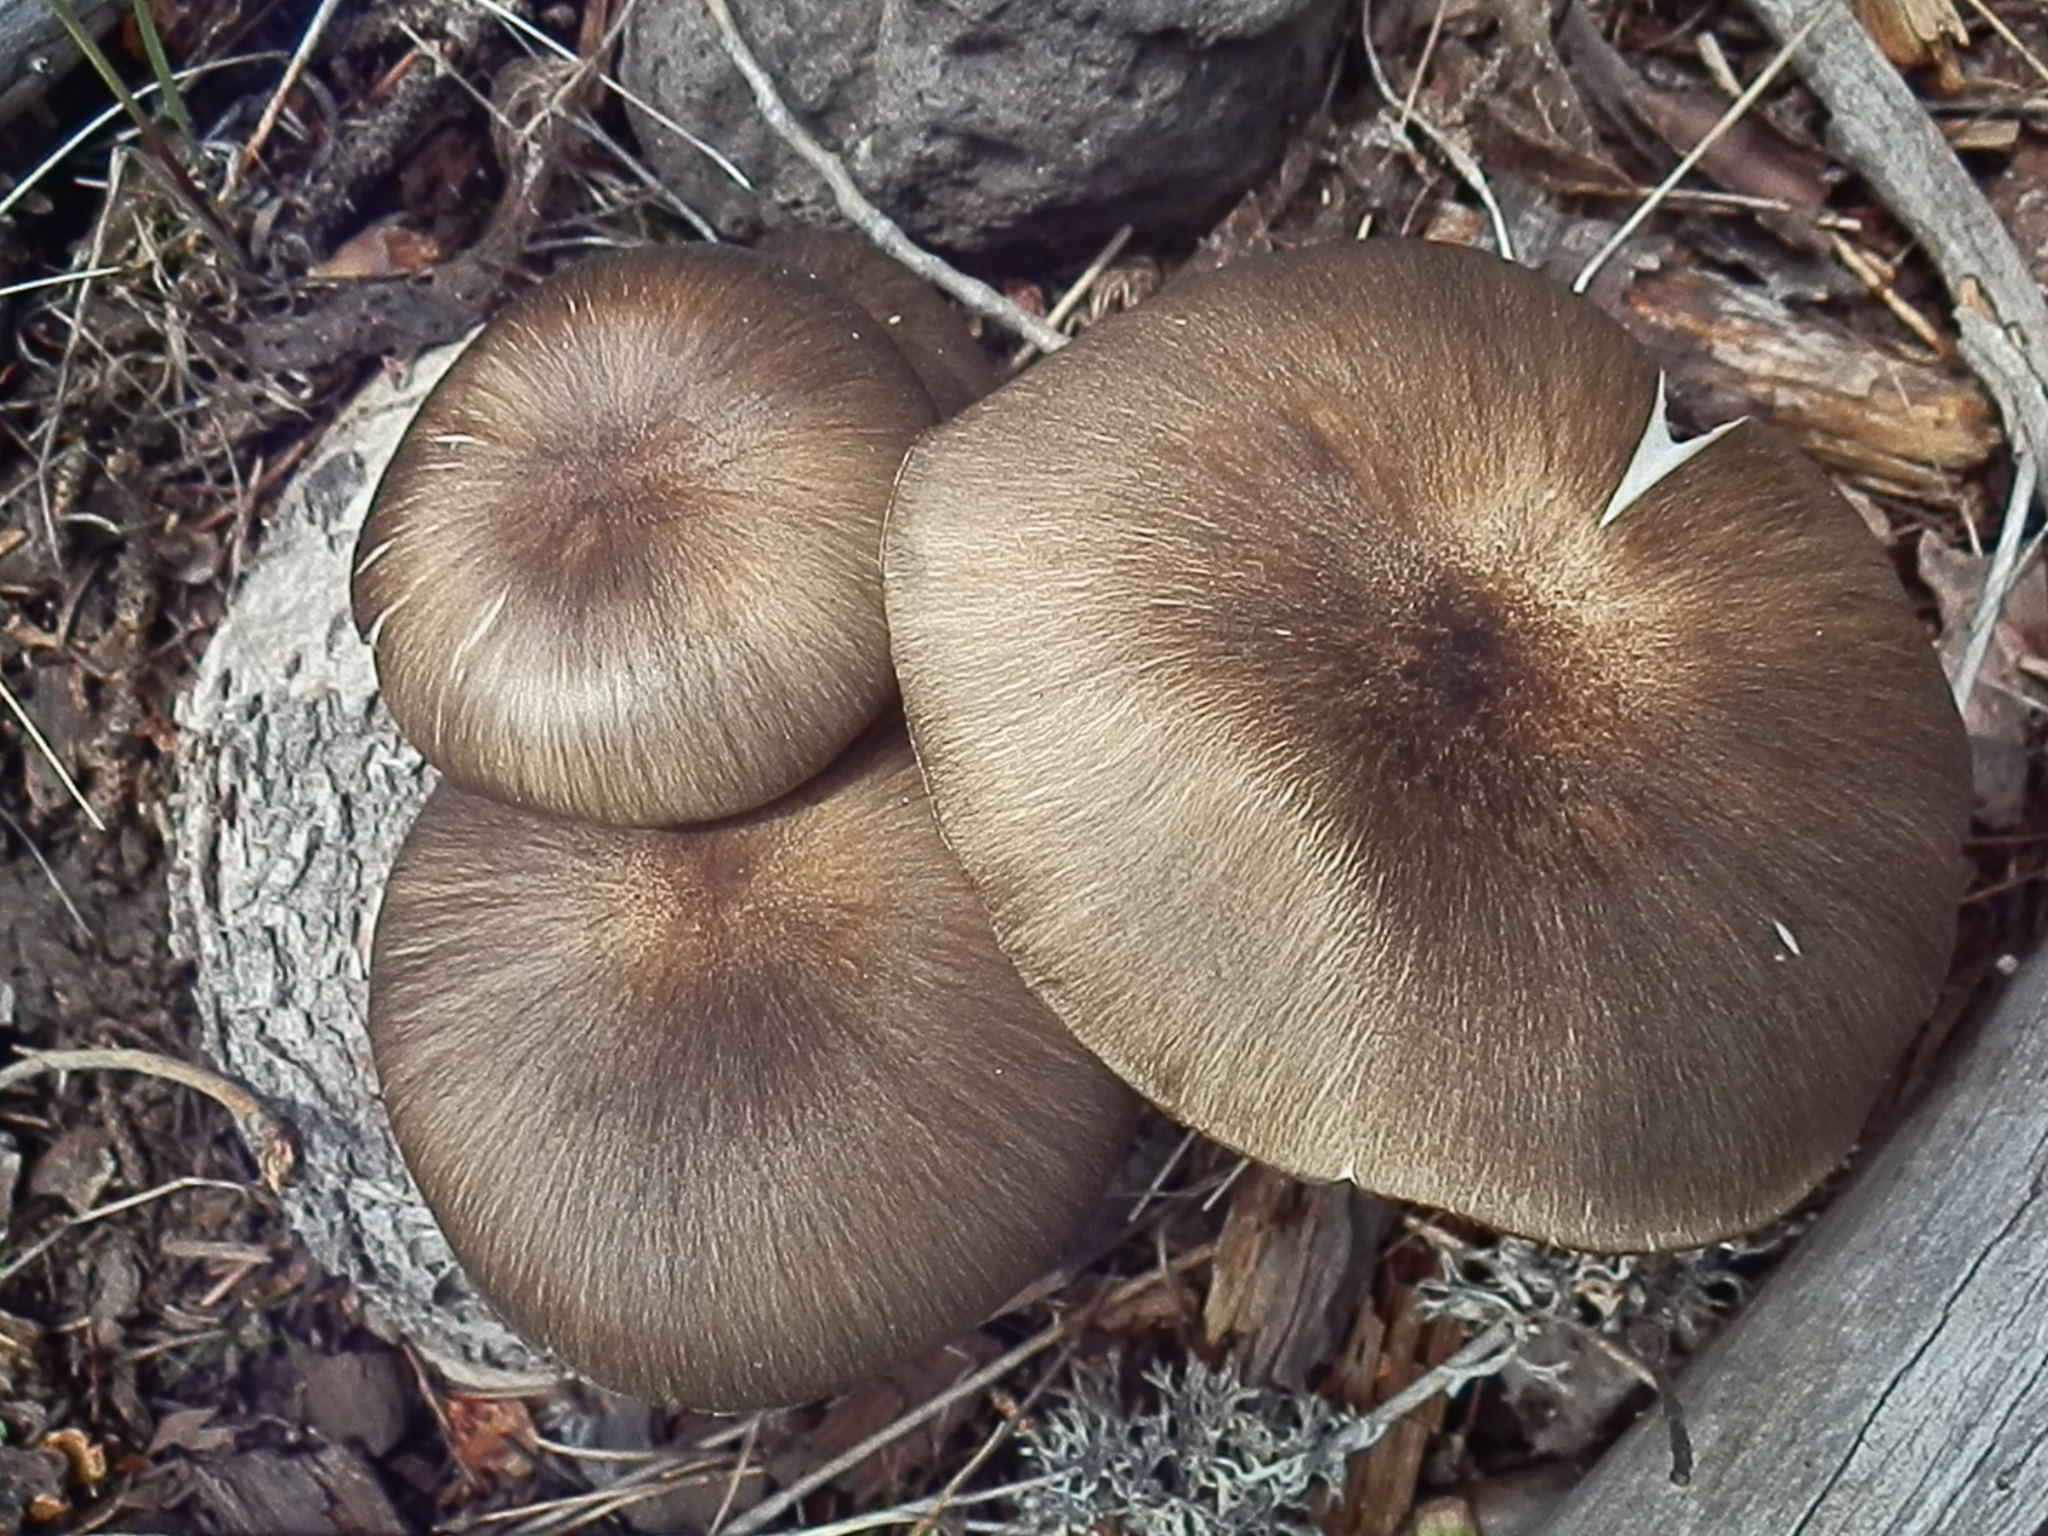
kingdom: Fungi
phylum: Basidiomycota
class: Agaricomycetes
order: Agaricales
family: Tricholomataceae
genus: Megacollybia
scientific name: Megacollybia fallax
